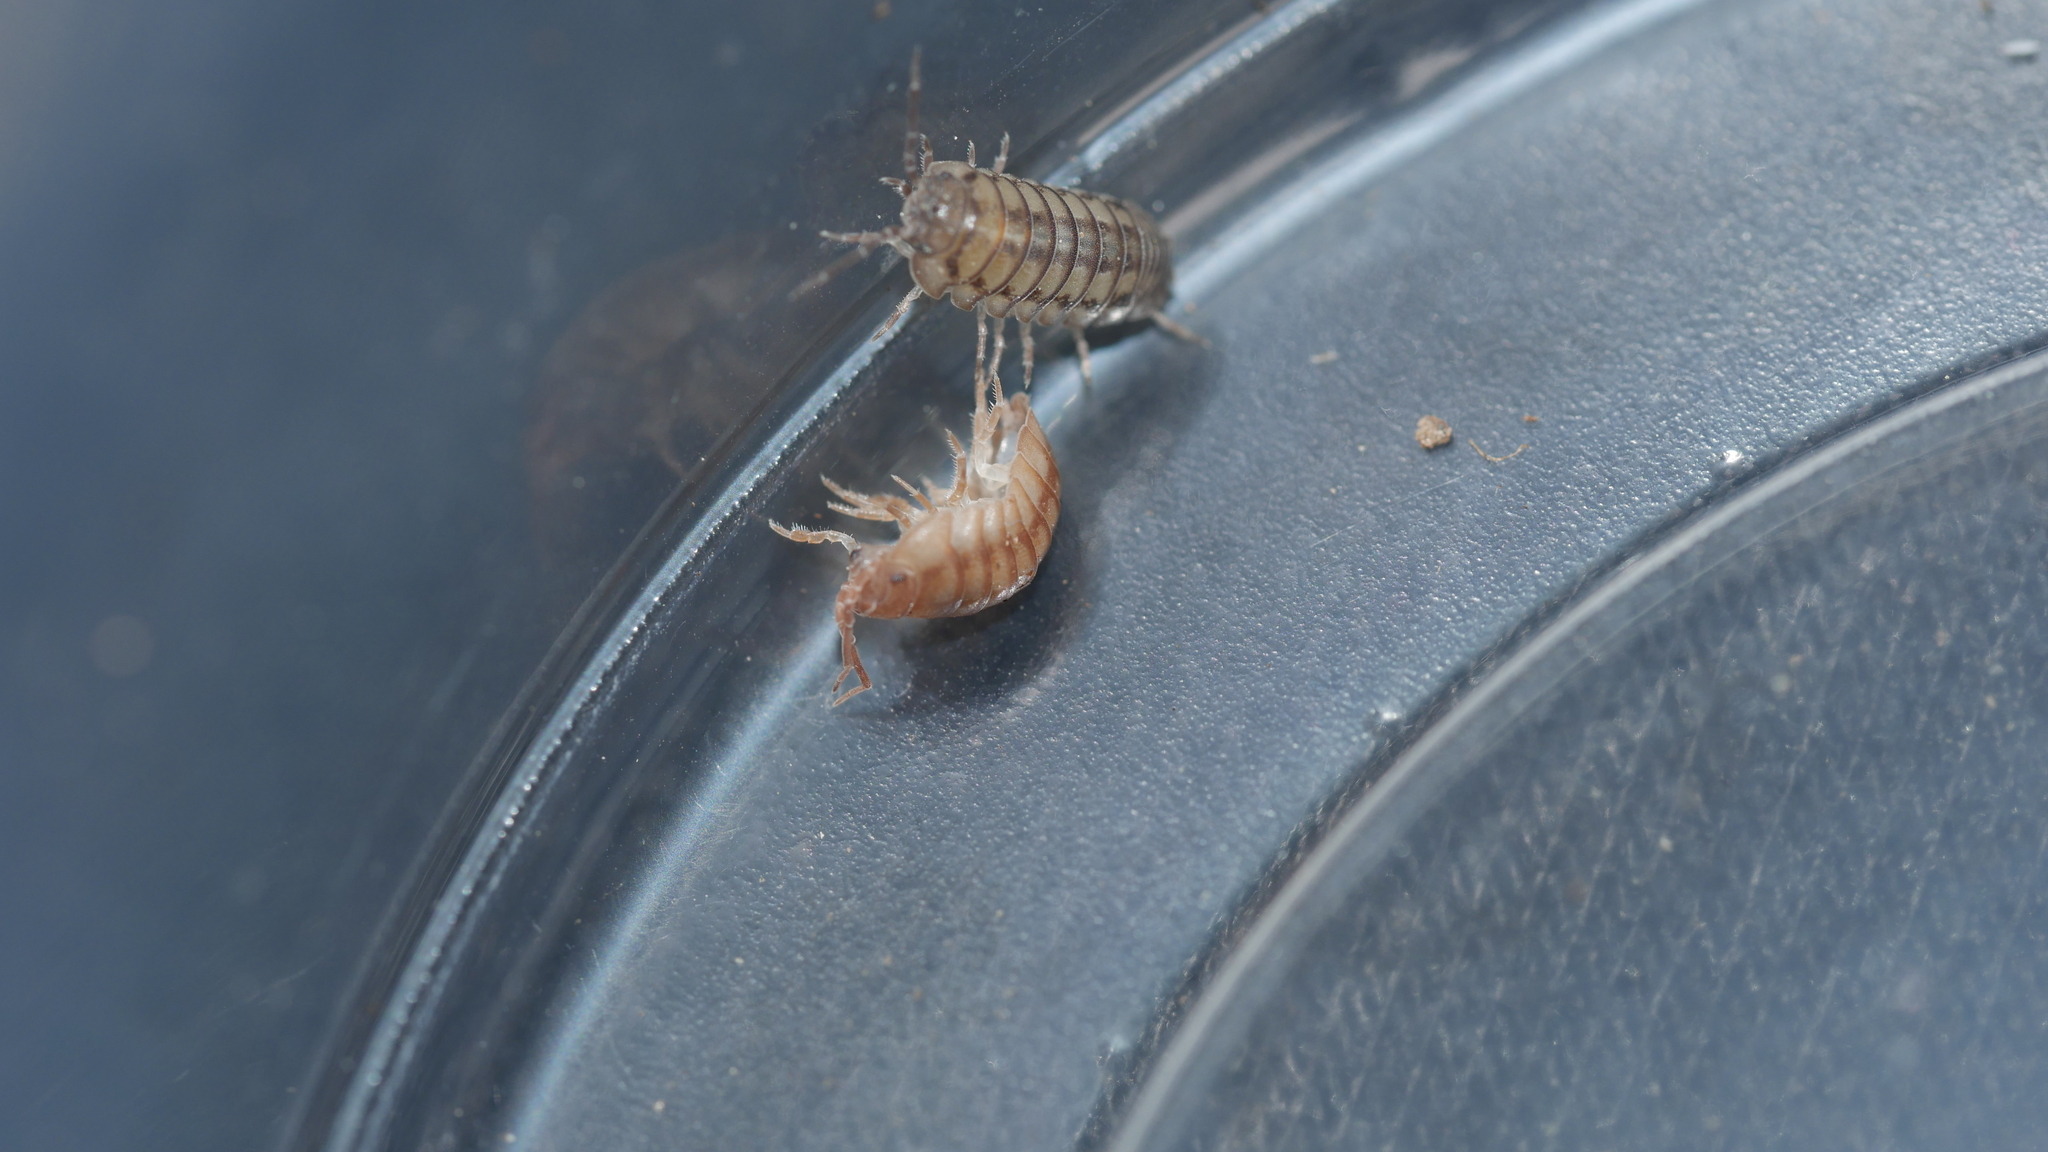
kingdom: Animalia
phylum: Arthropoda
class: Malacostraca
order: Isopoda
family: Armadillidiidae
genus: Armadillidium
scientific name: Armadillidium nasatum
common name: Isopod
